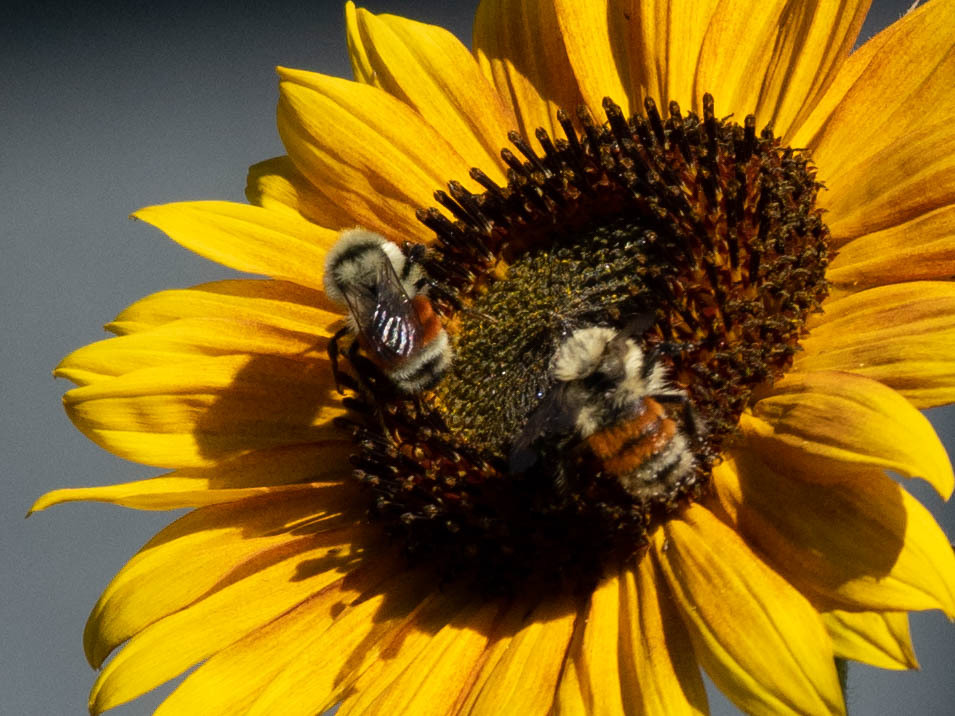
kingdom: Animalia
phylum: Arthropoda
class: Insecta
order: Hymenoptera
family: Apidae
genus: Bombus
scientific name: Bombus huntii
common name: Hunt bumble bee
